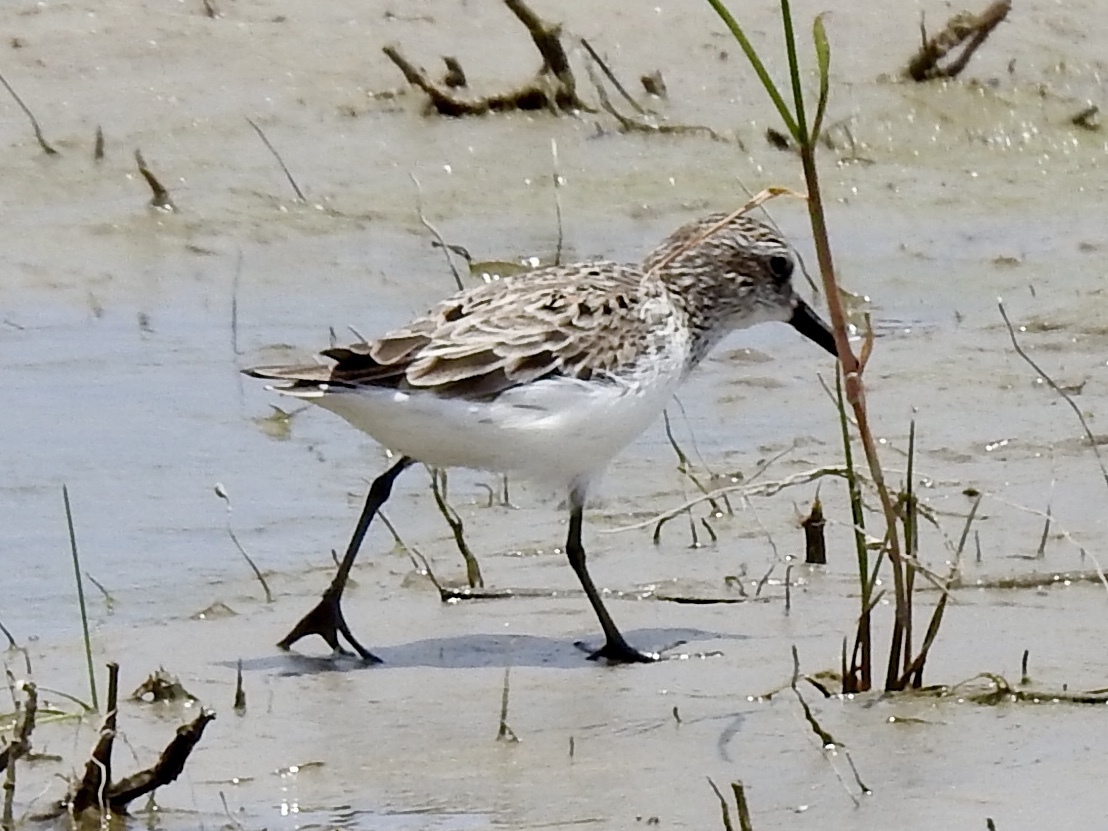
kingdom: Animalia
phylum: Chordata
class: Aves
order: Charadriiformes
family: Scolopacidae
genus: Calidris
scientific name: Calidris pusilla
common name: Semipalmated sandpiper
